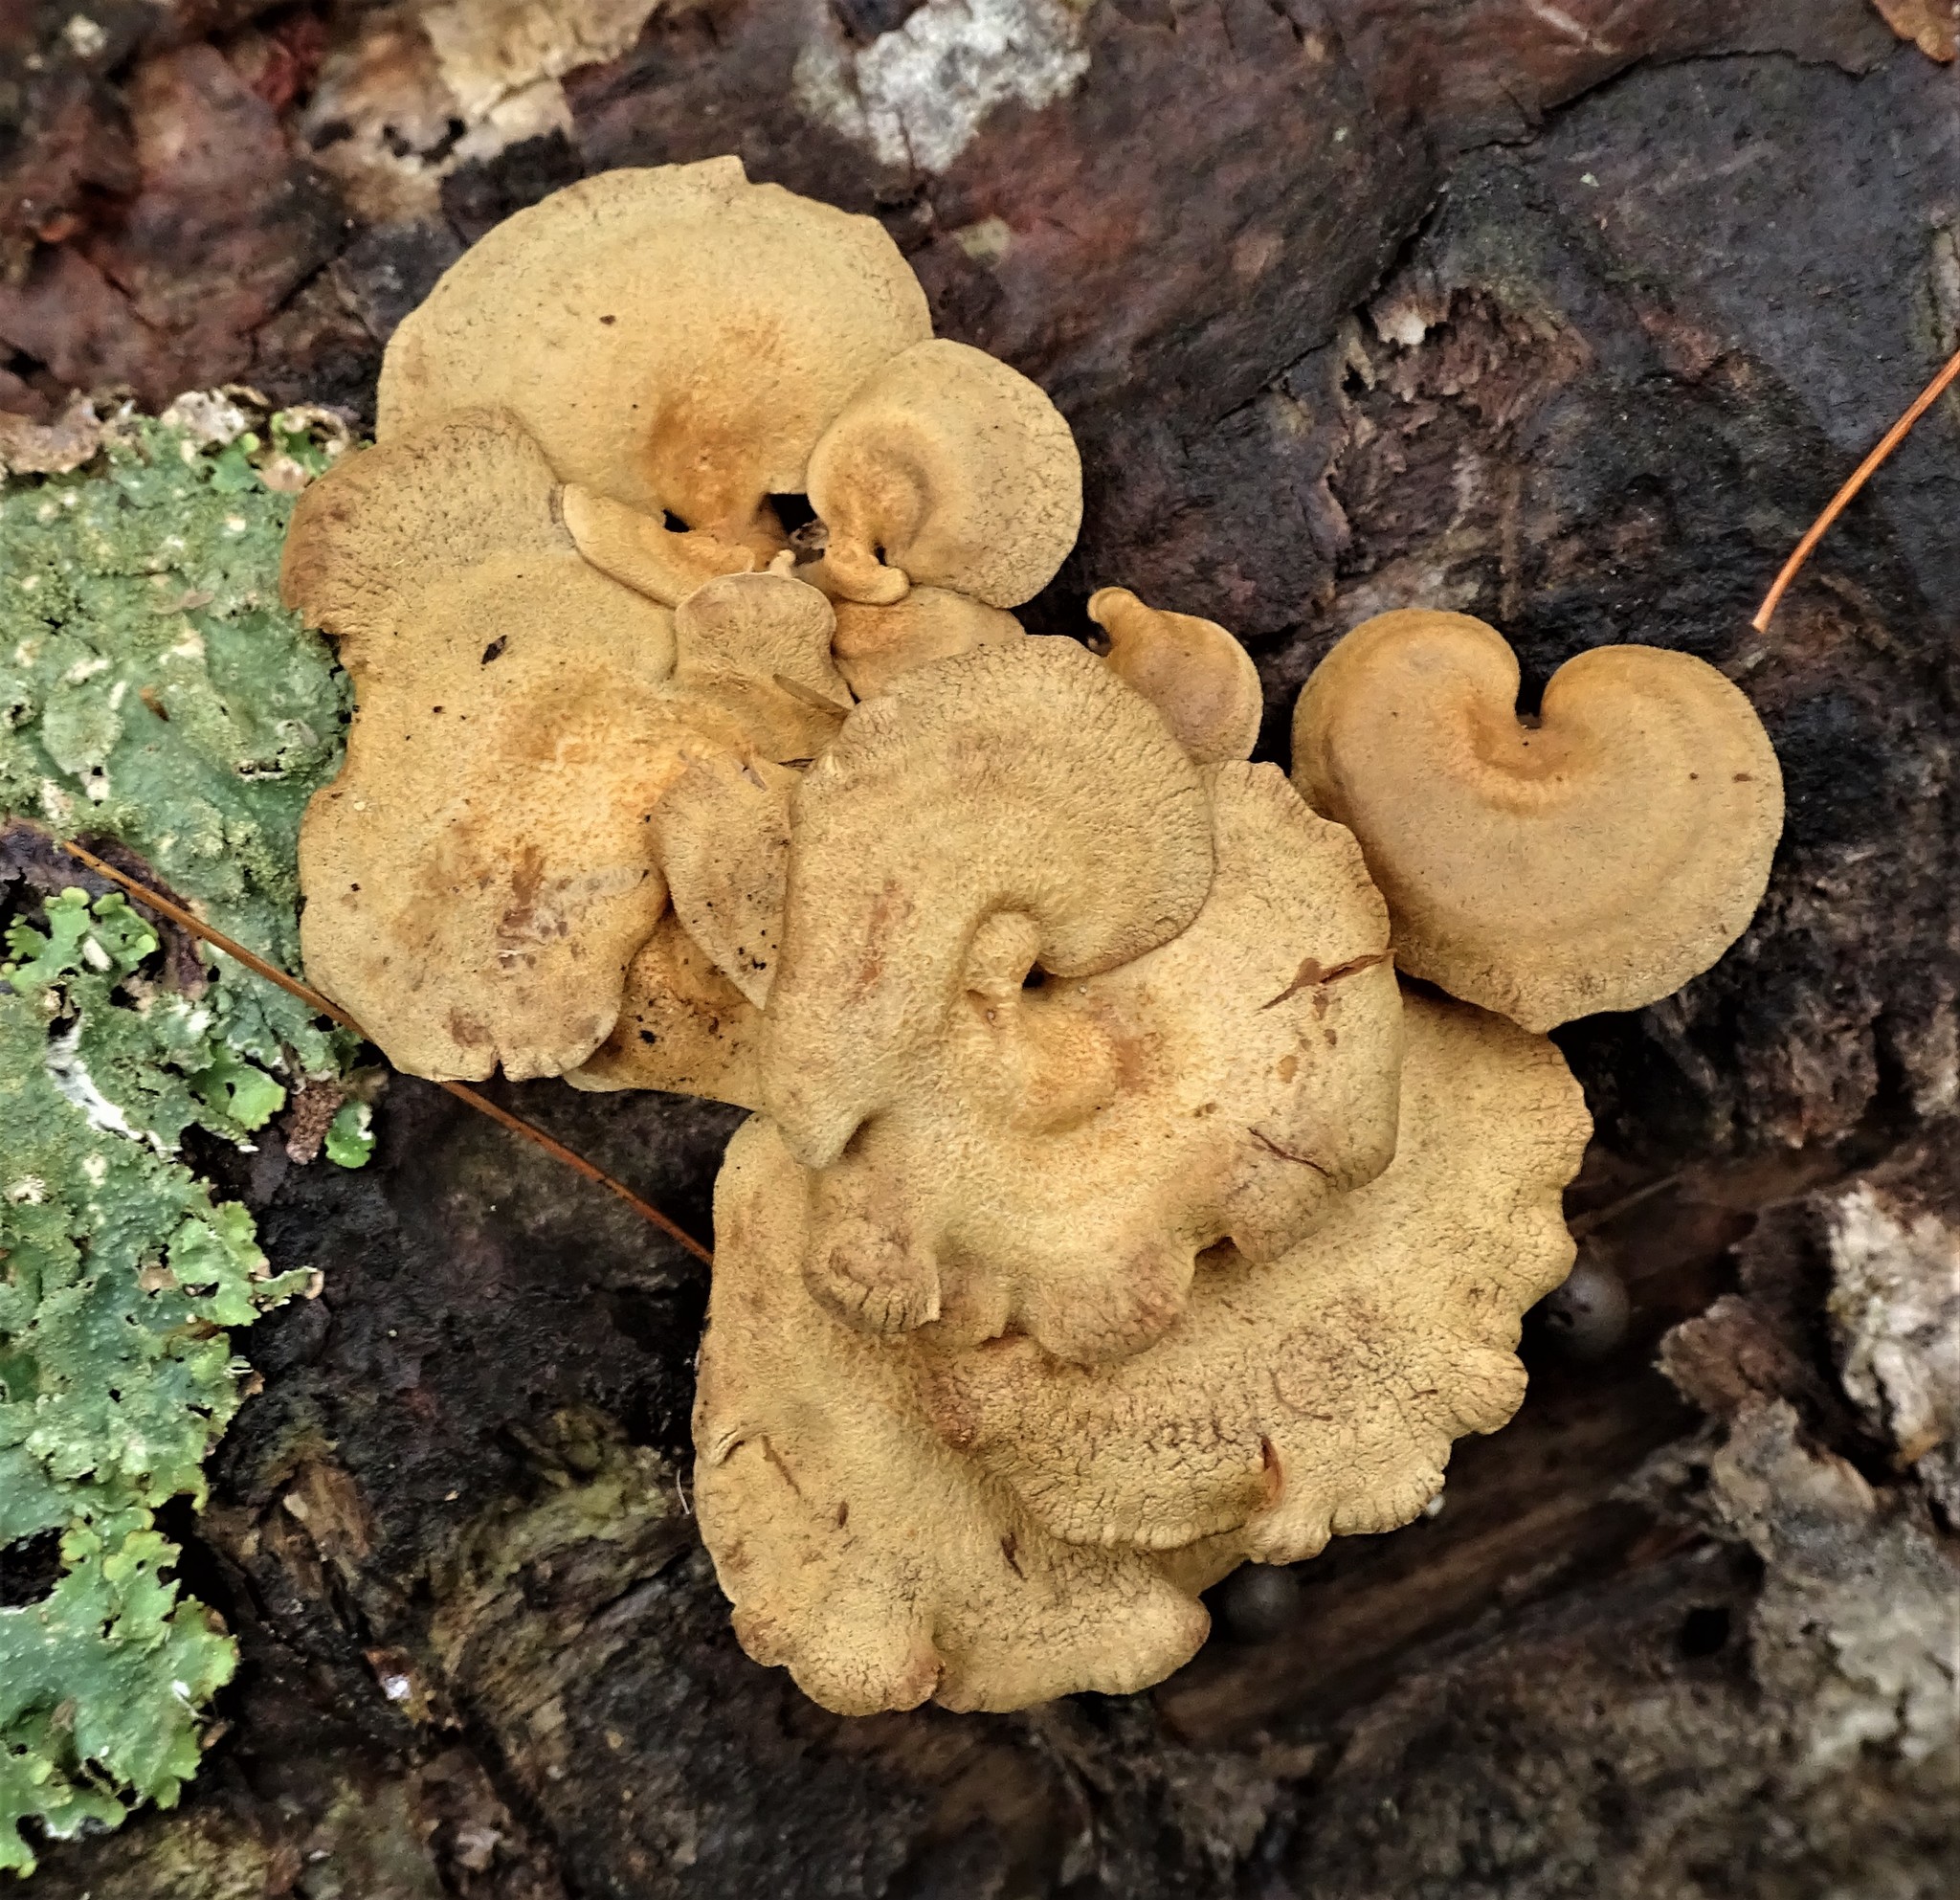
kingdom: Fungi
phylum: Basidiomycota
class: Agaricomycetes
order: Agaricales
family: Mycenaceae
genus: Panellus
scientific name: Panellus stipticus
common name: Bitter oysterling
